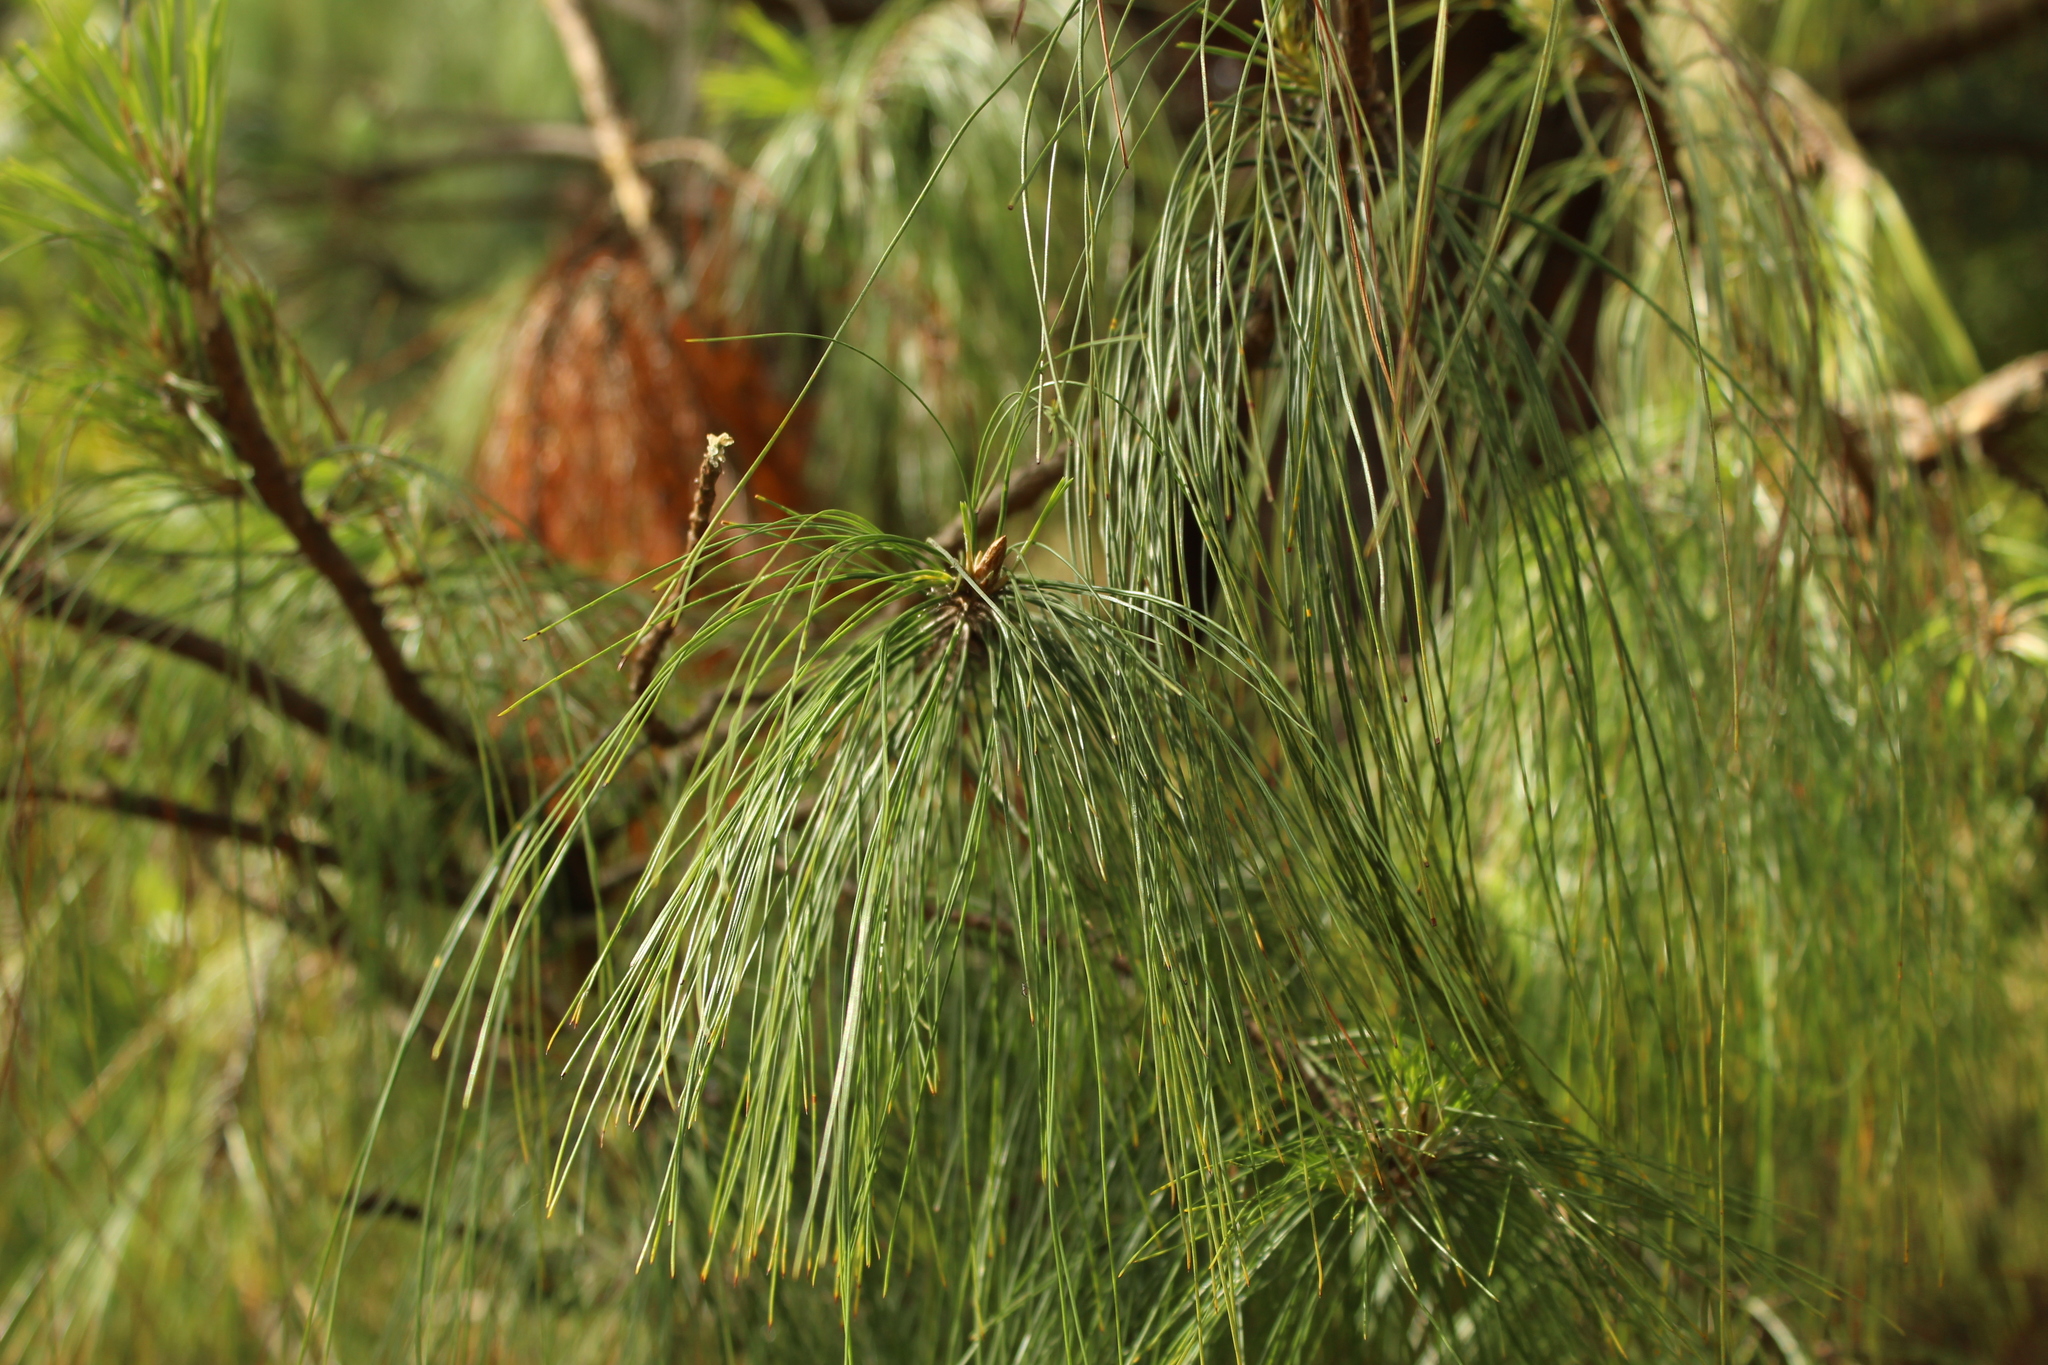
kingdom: Plantae
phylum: Tracheophyta
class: Pinopsida
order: Pinales
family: Pinaceae
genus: Pinus
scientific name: Pinus patula
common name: Mexican weeping pine
